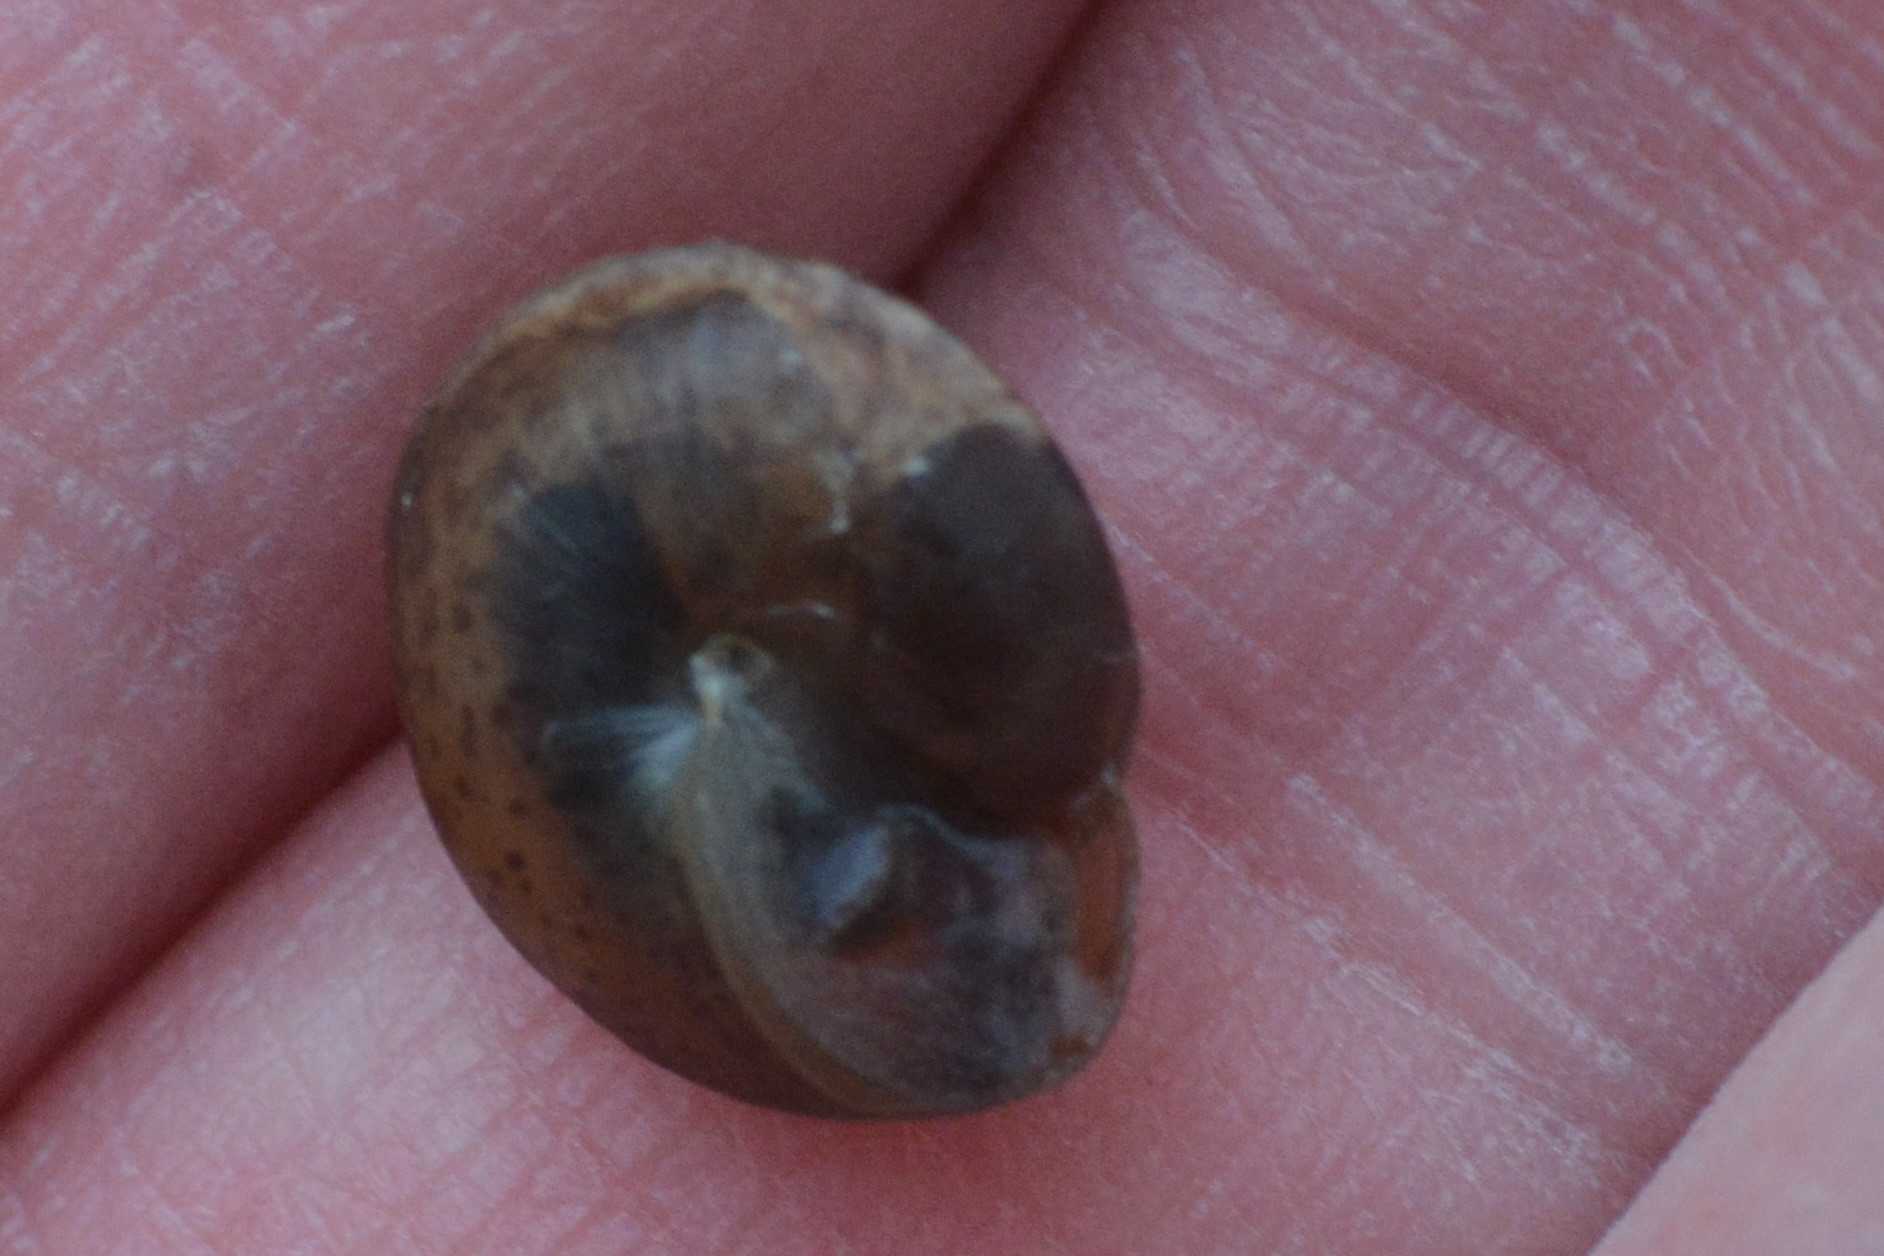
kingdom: Animalia
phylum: Mollusca
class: Gastropoda
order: Stylommatophora
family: Hygromiidae
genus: Hygromia
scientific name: Hygromia cinctella
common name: Girdled snail
